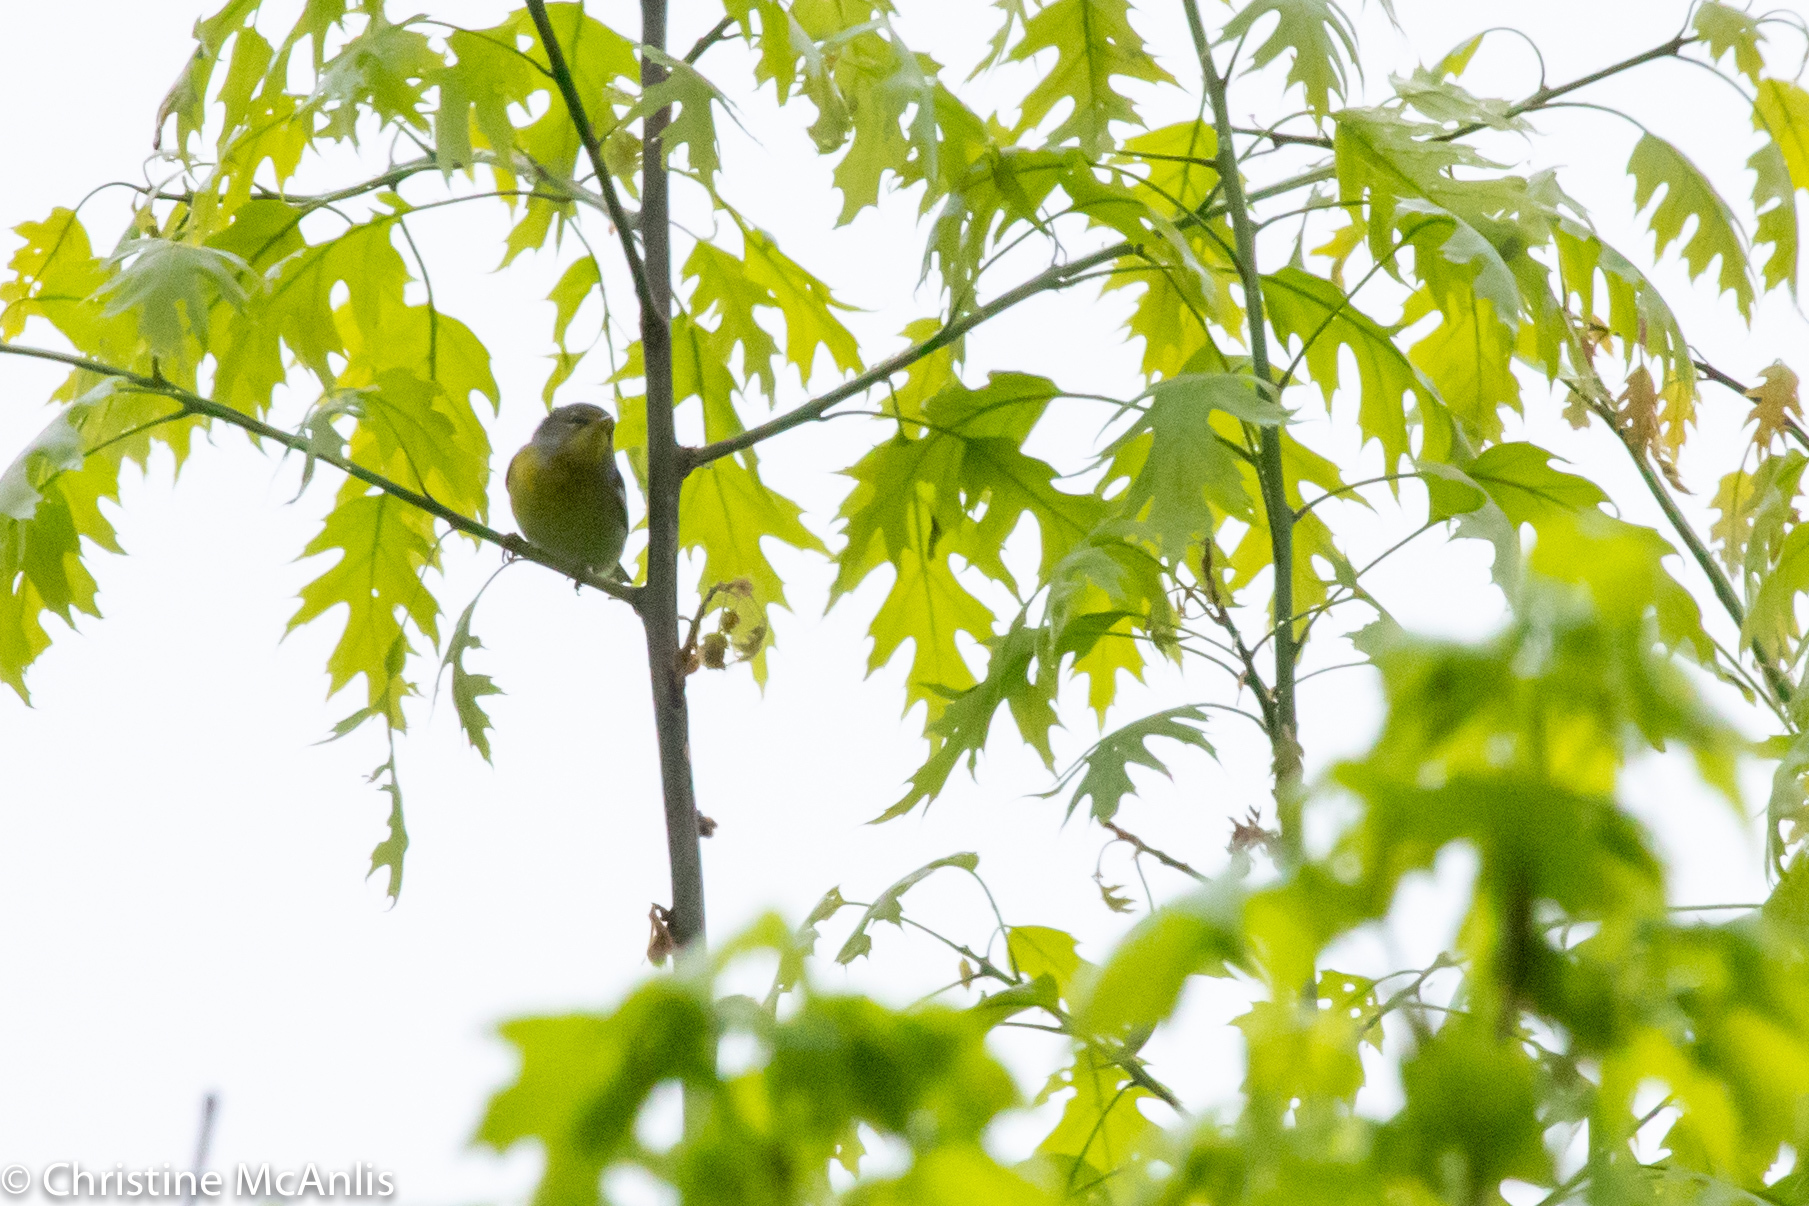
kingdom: Animalia
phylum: Chordata
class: Aves
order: Passeriformes
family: Parulidae
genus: Setophaga
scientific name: Setophaga americana
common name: Northern parula
